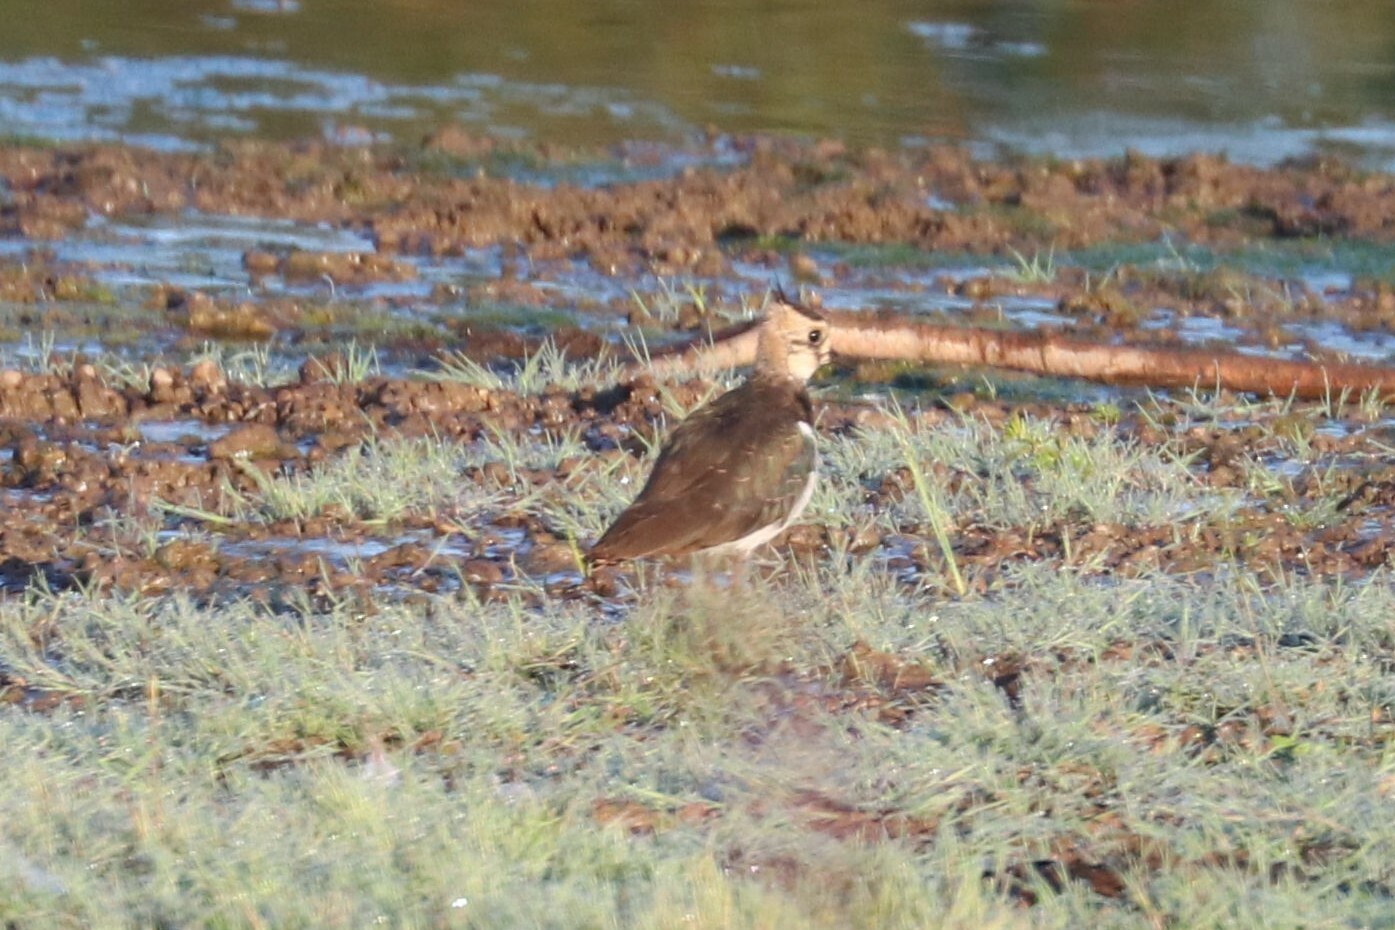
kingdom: Animalia
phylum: Chordata
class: Aves
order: Charadriiformes
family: Charadriidae
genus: Vanellus
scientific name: Vanellus vanellus
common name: Northern lapwing
